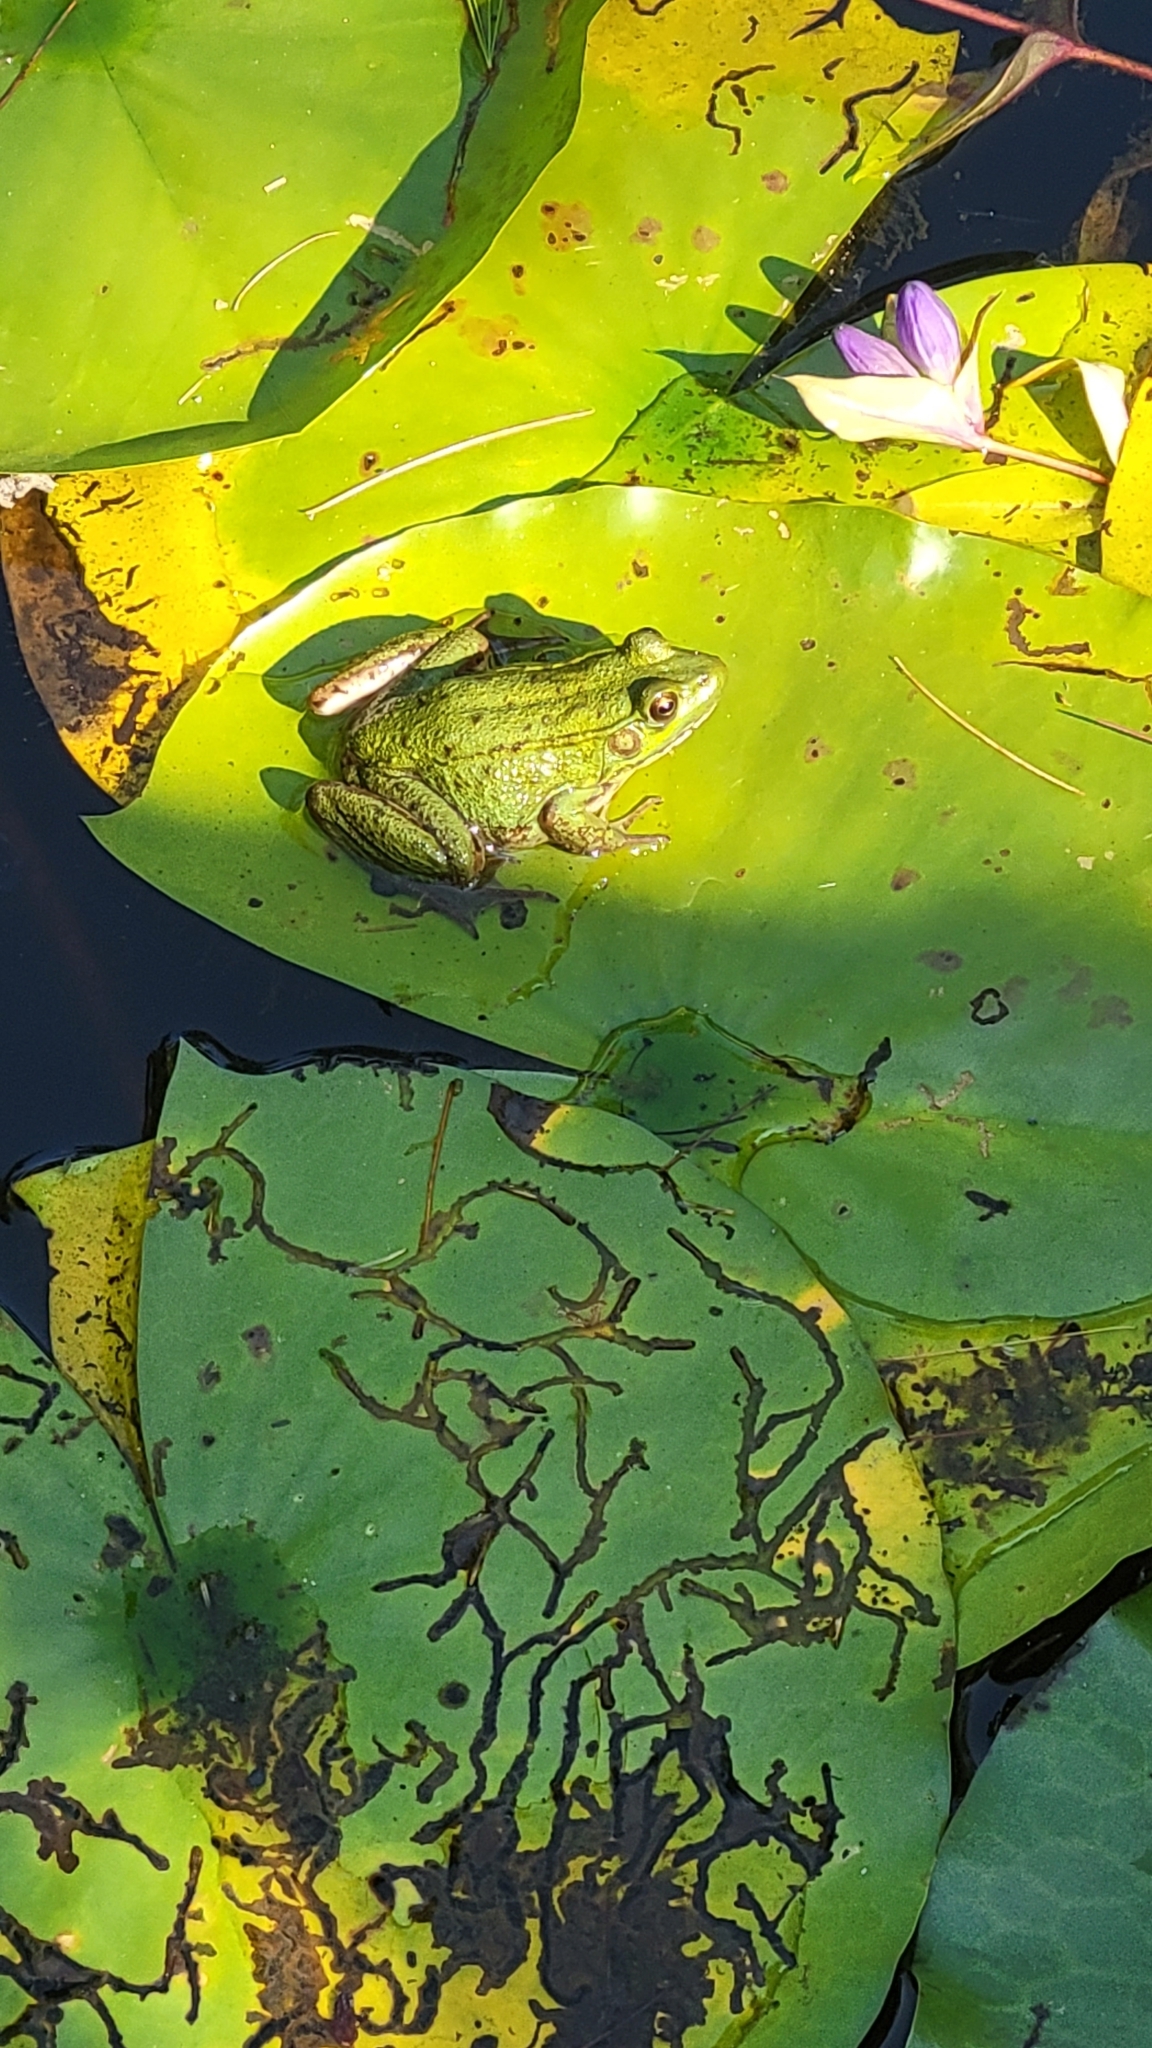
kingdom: Animalia
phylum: Chordata
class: Amphibia
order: Anura
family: Ranidae
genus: Lithobates
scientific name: Lithobates clamitans
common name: Green frog
